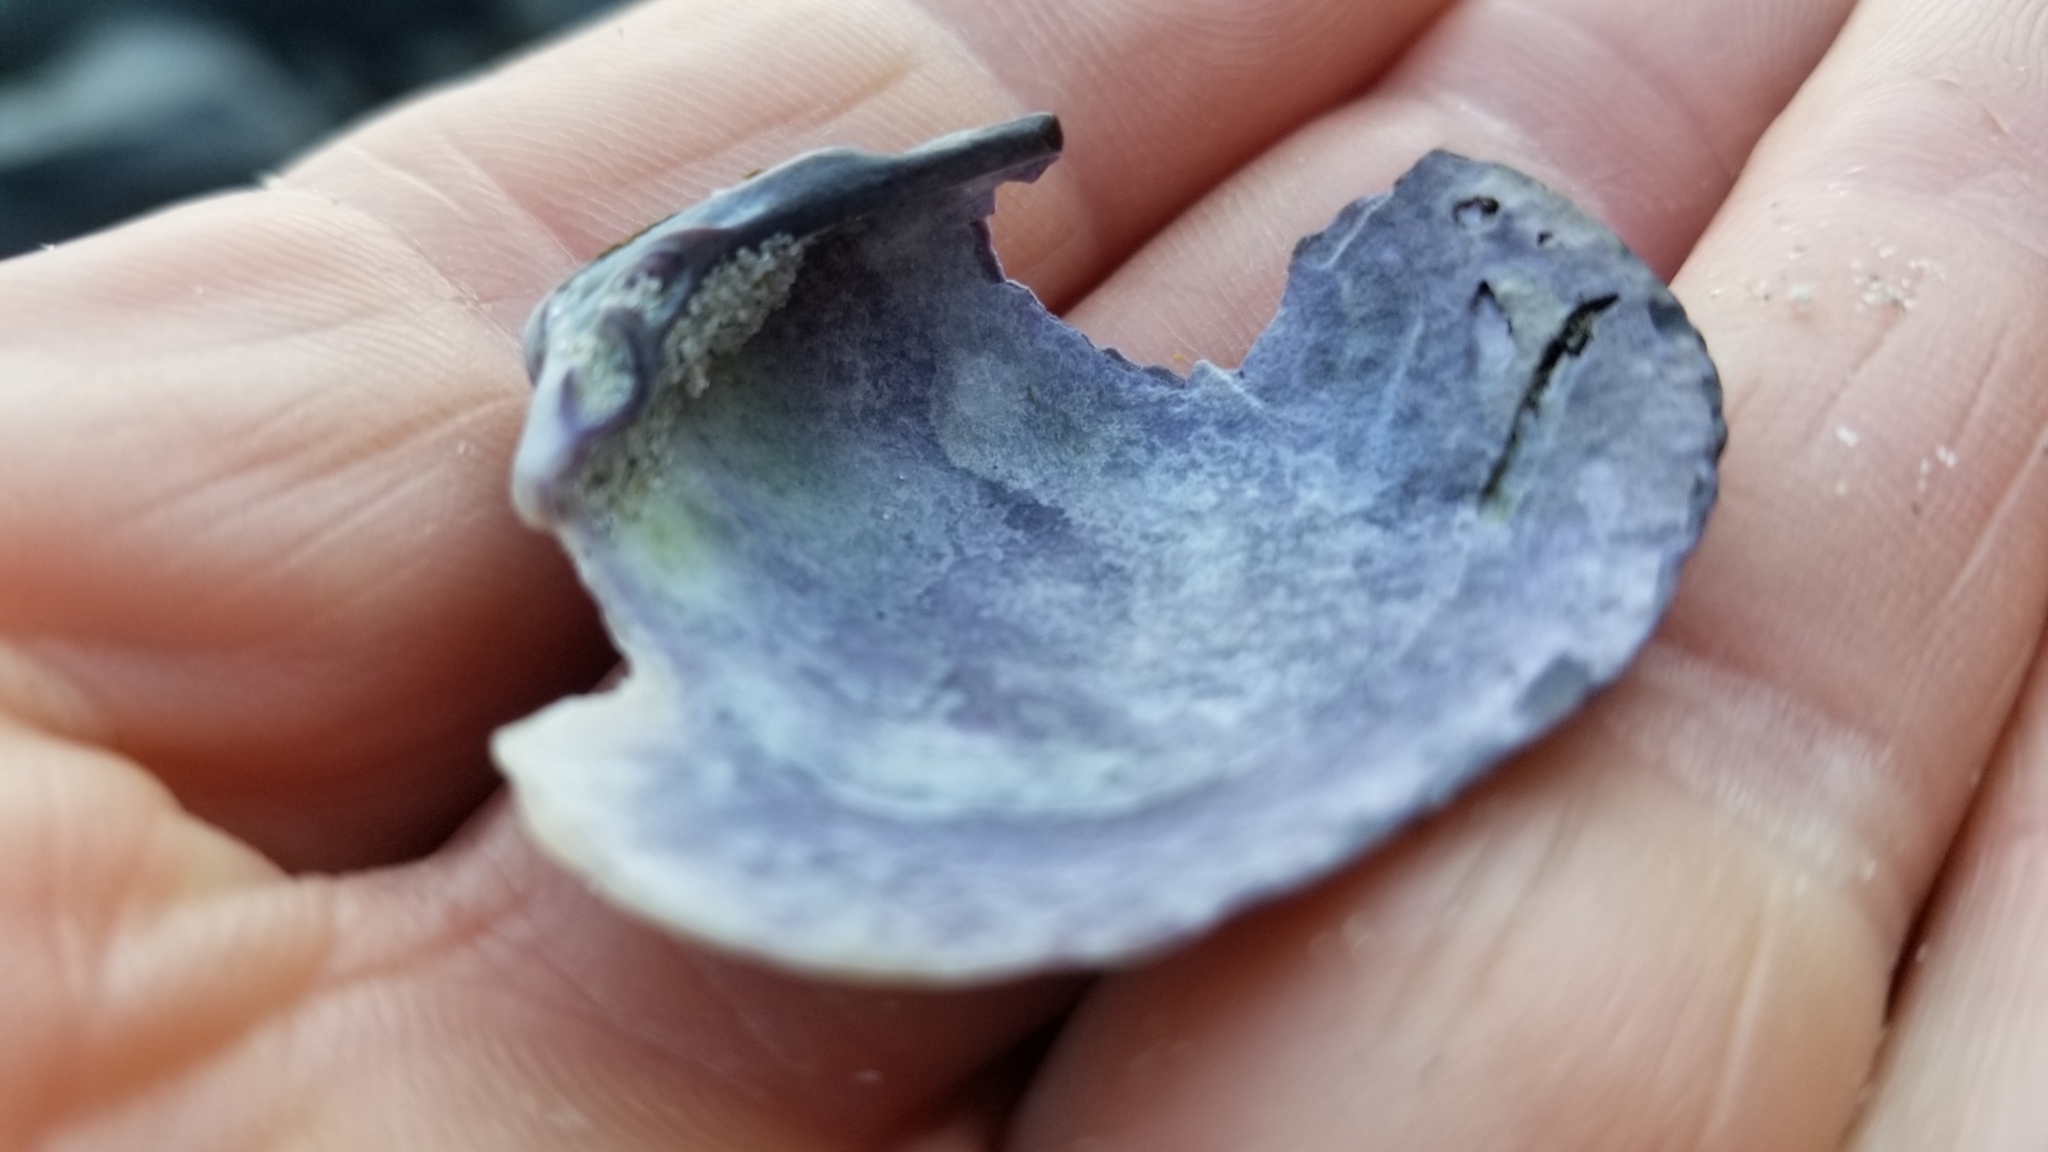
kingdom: Animalia
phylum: Mollusca
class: Bivalvia
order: Venerida
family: Veneridae
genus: Austrovenus
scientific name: Austrovenus stutchburyi
